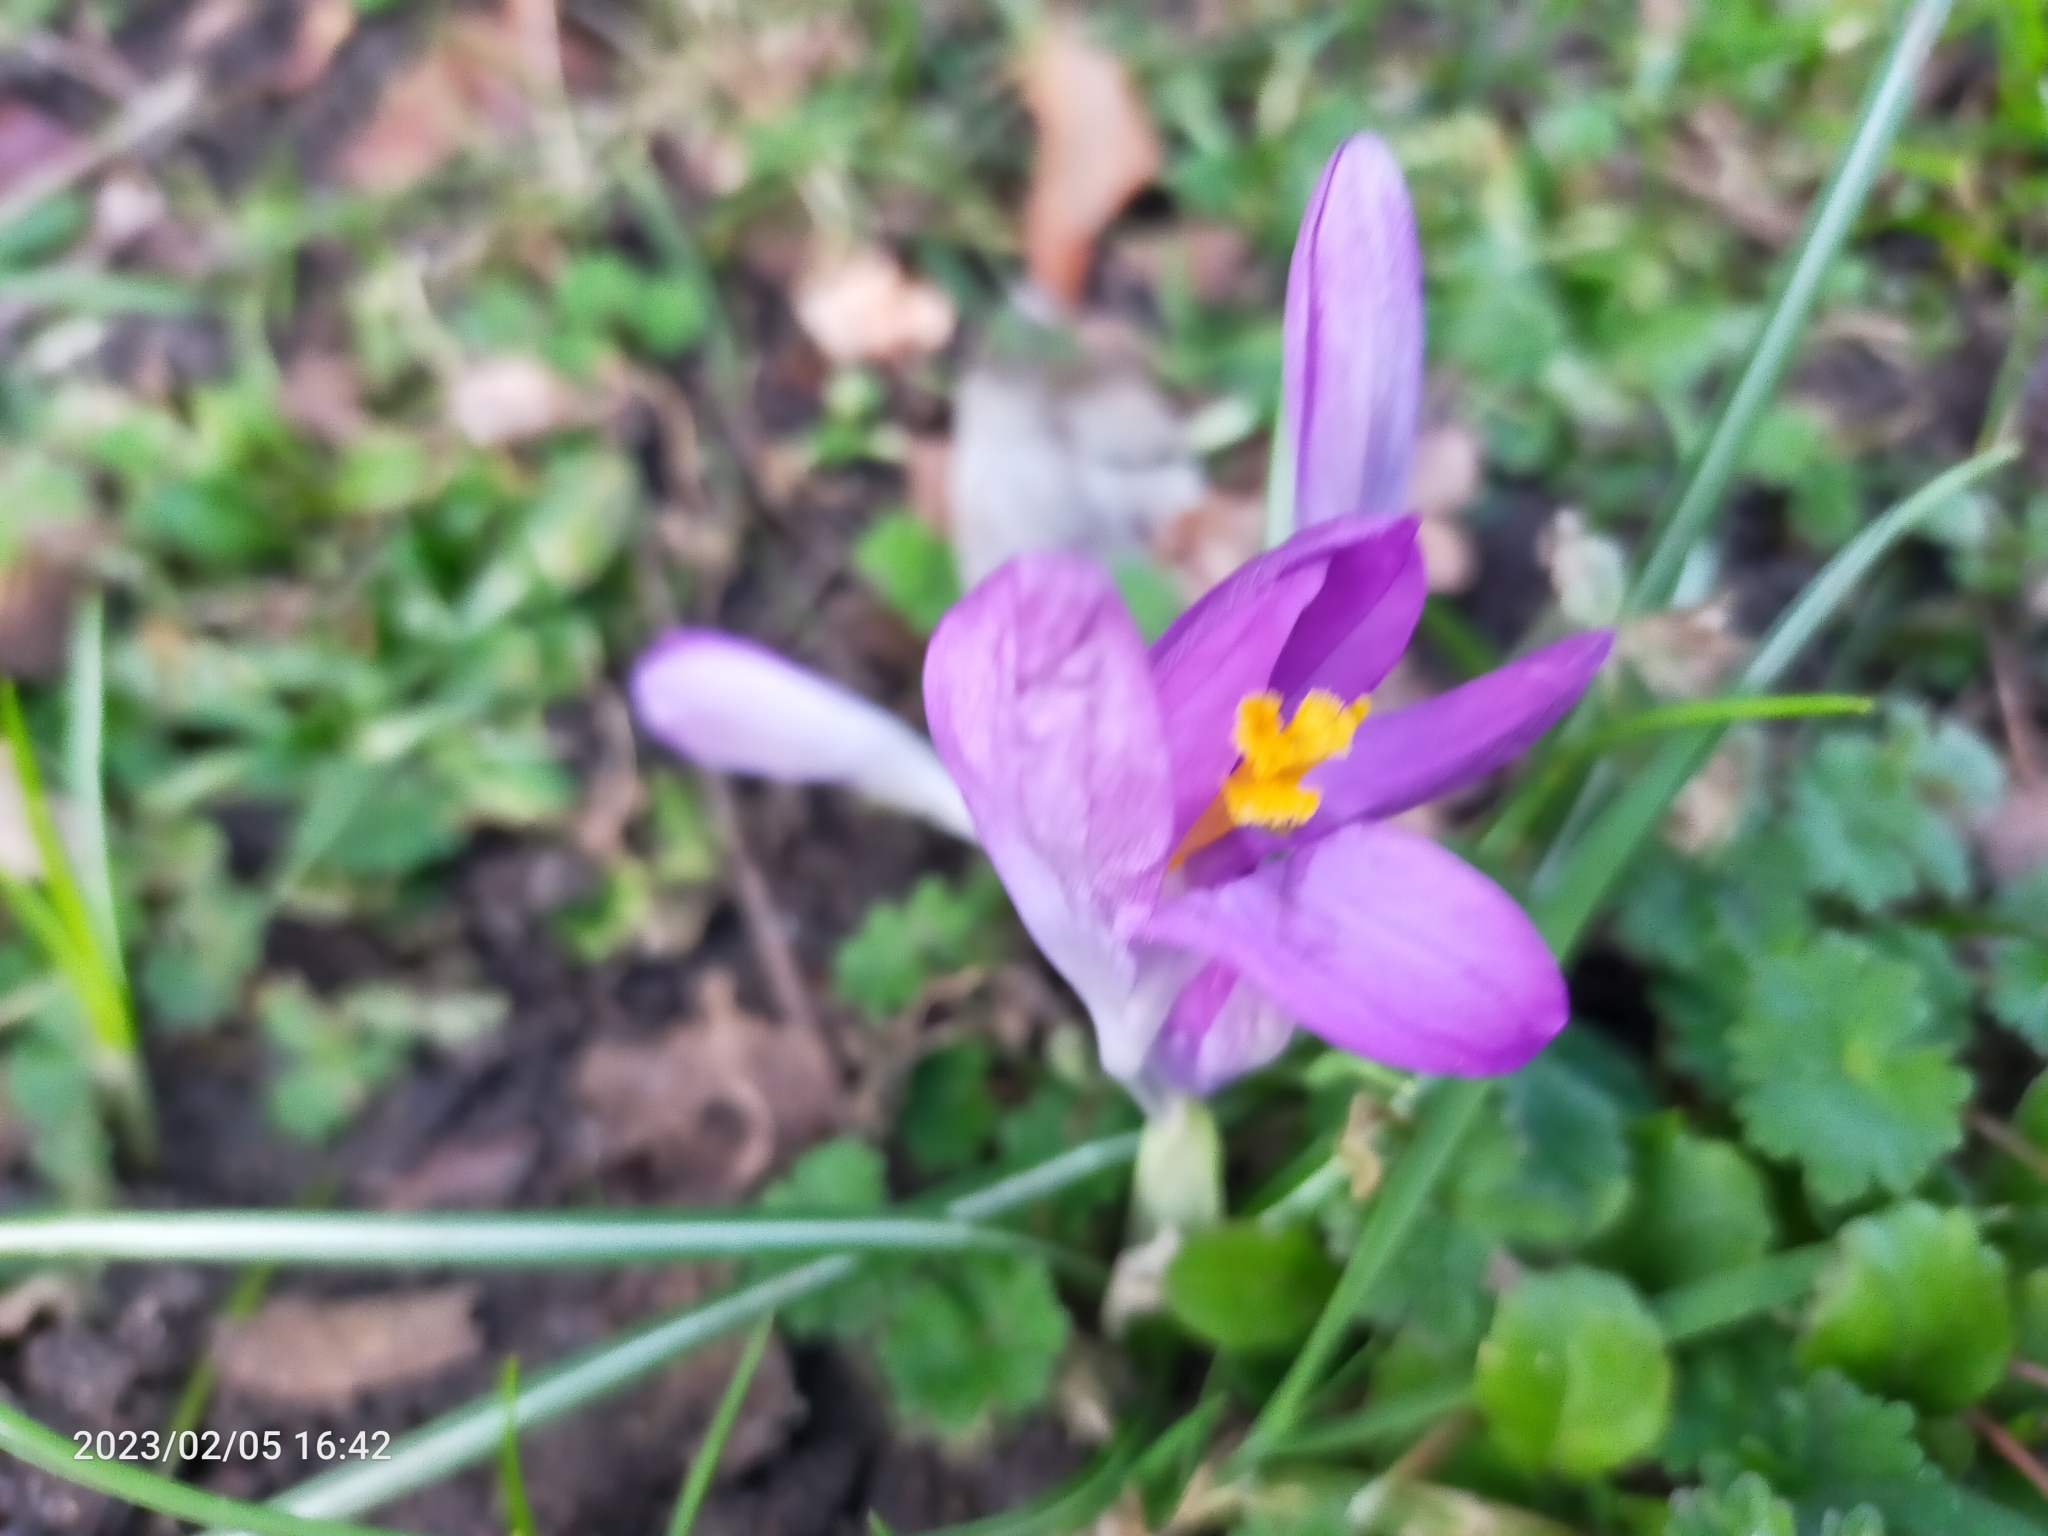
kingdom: Plantae
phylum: Tracheophyta
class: Liliopsida
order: Asparagales
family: Iridaceae
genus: Crocus
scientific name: Crocus tommasinianus
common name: Early crocus
